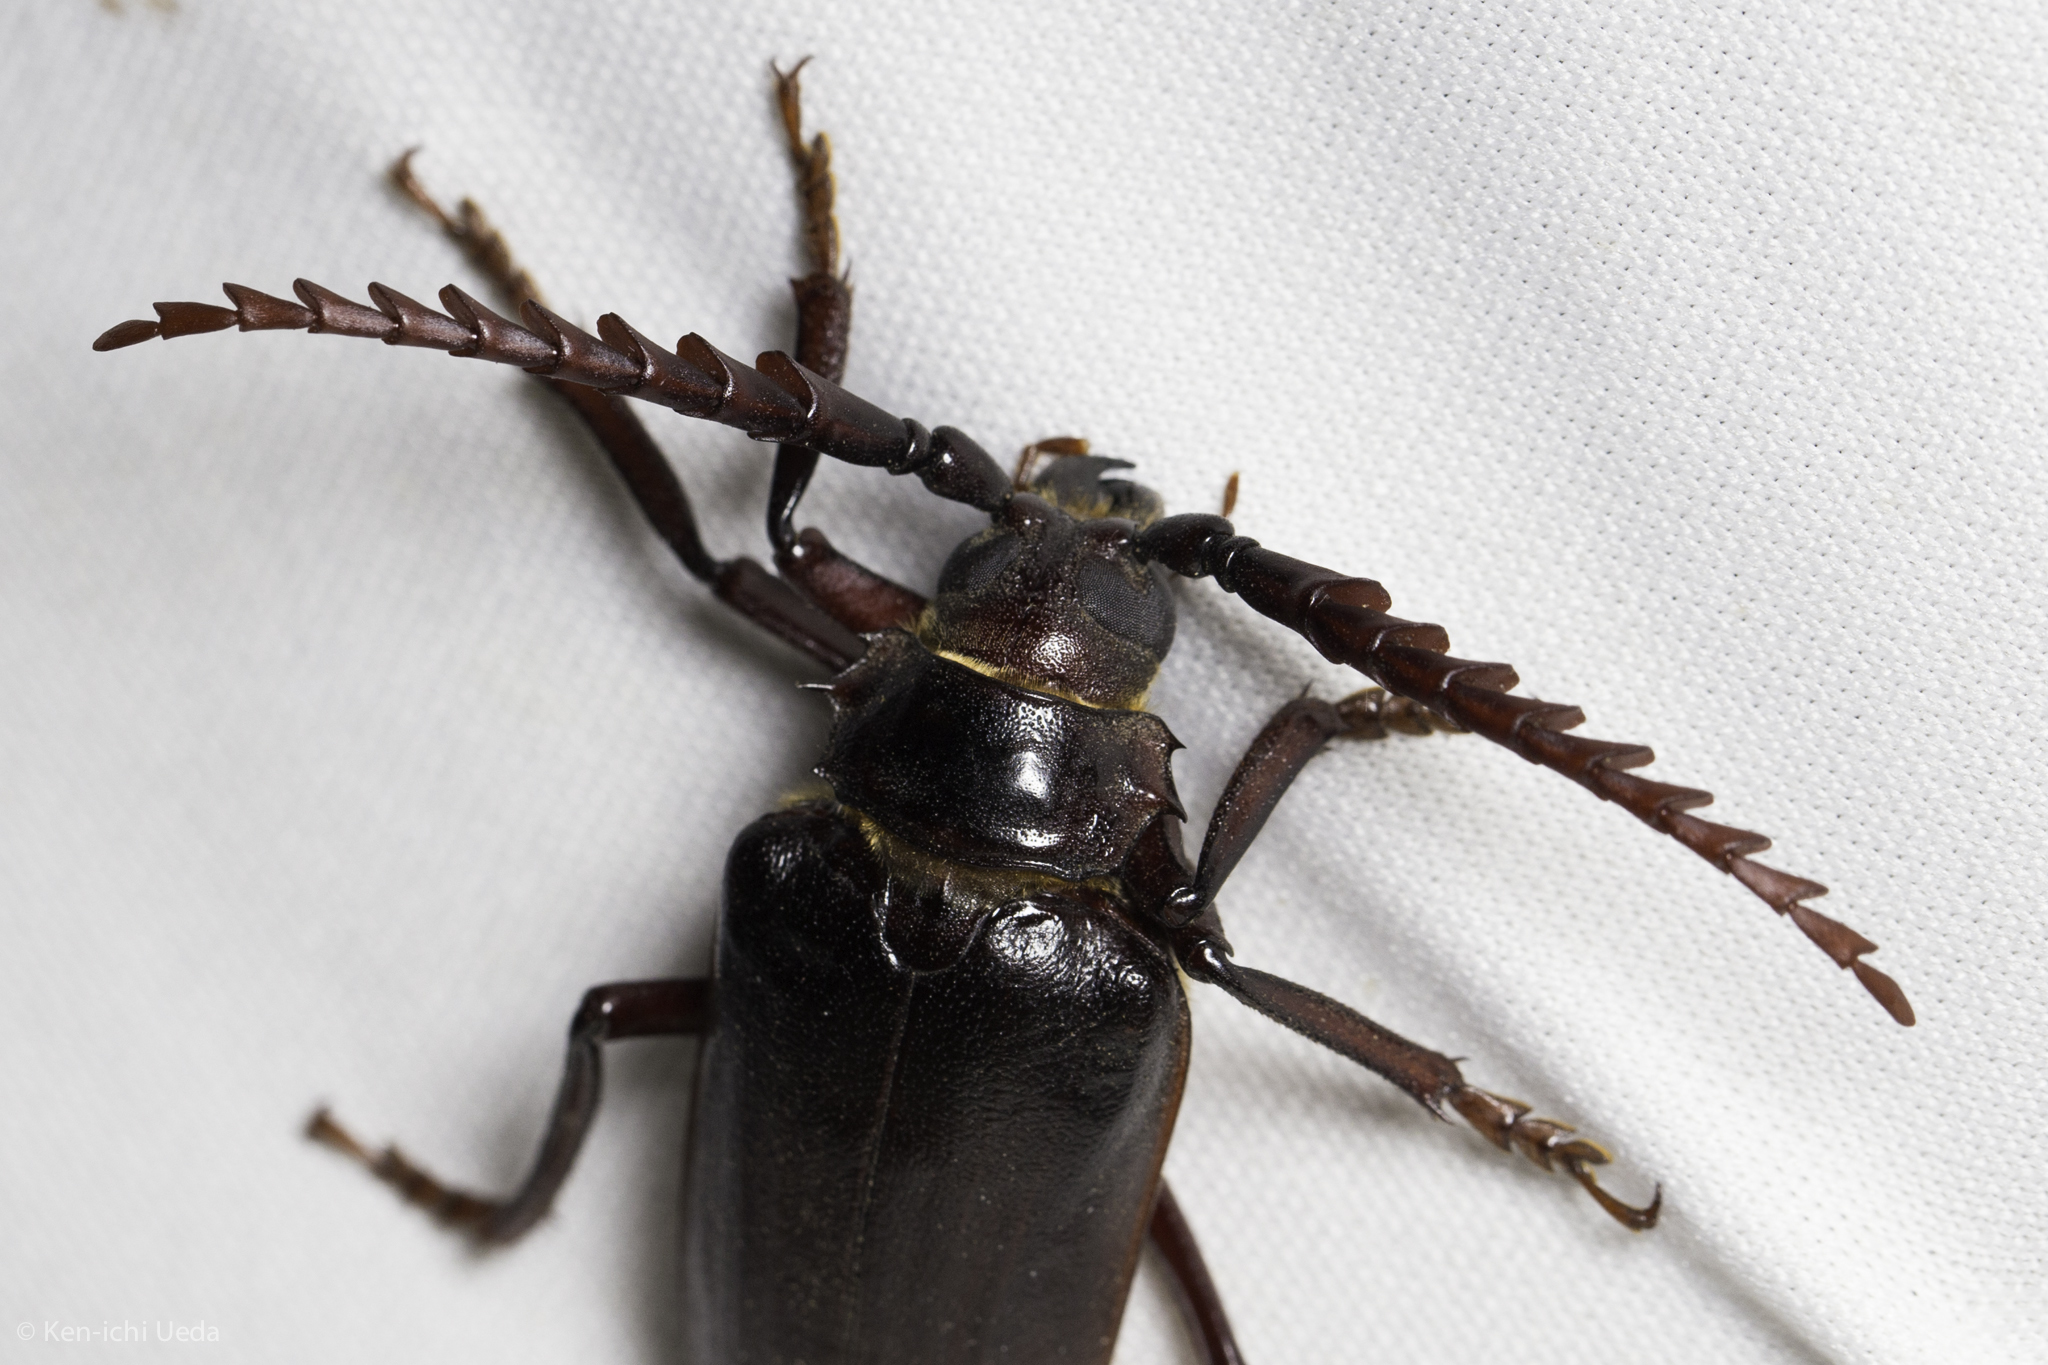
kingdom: Animalia
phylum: Arthropoda
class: Insecta
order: Coleoptera
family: Cerambycidae
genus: Prionus
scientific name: Prionus californicus
